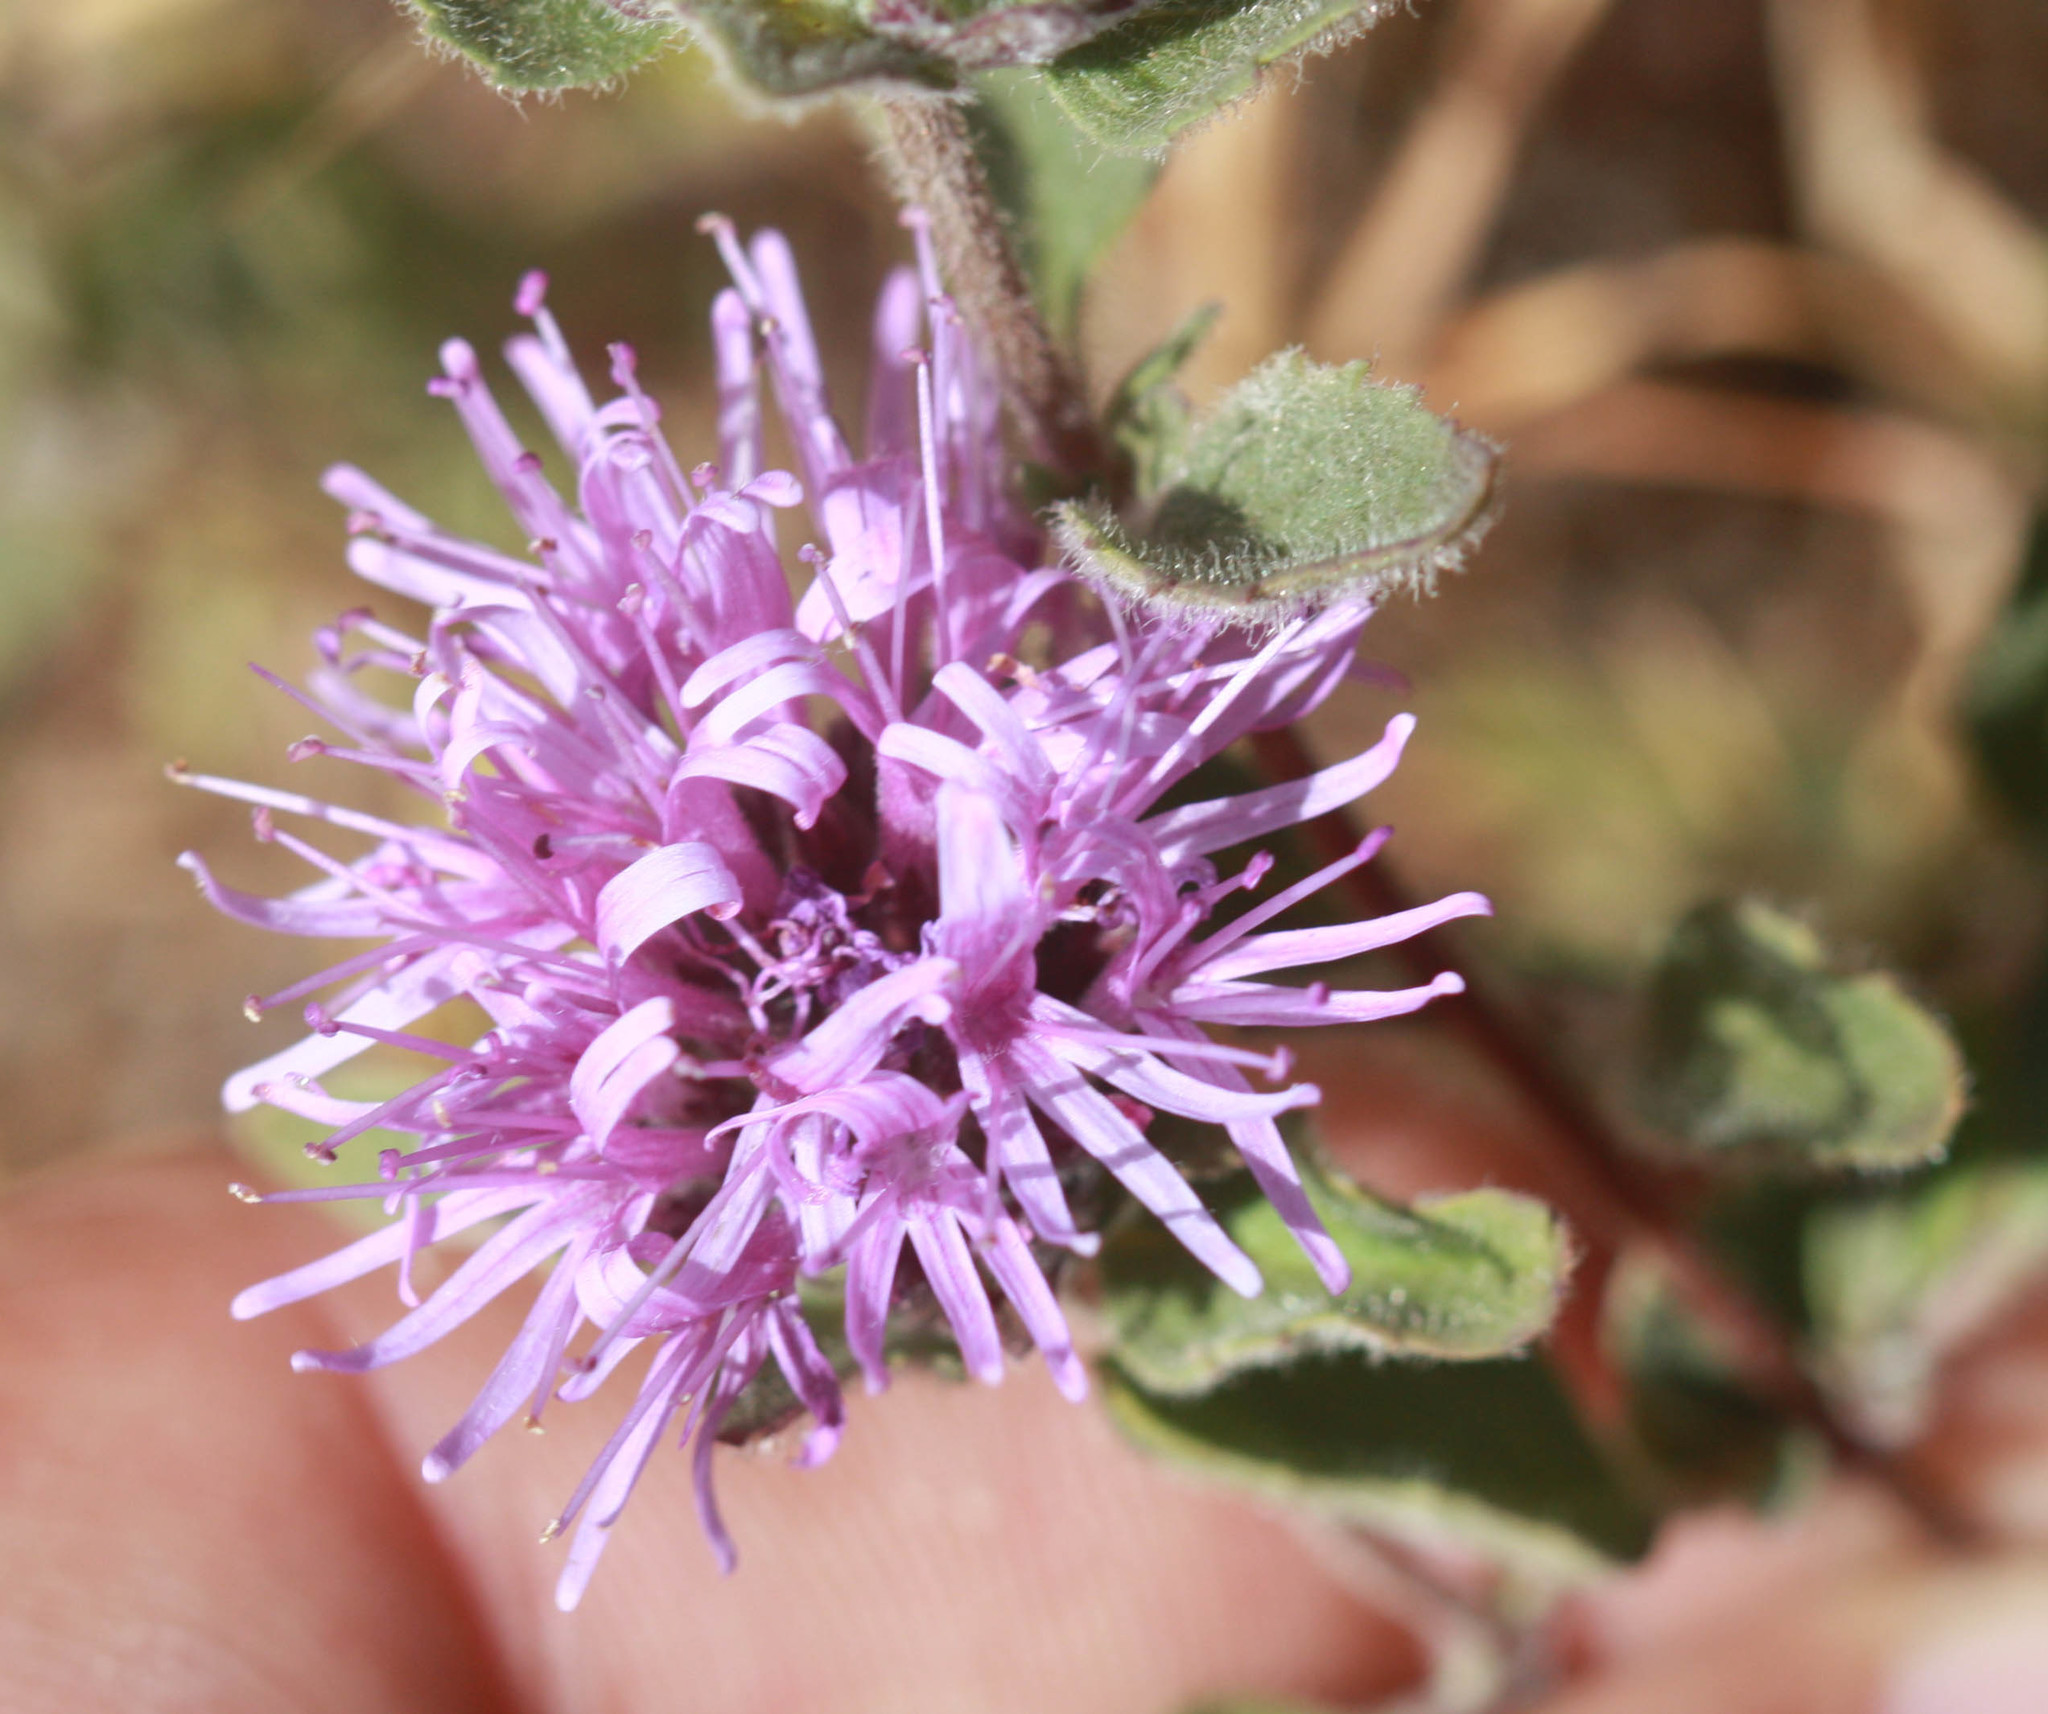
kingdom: Plantae
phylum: Tracheophyta
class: Magnoliopsida
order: Lamiales
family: Lamiaceae
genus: Monardella
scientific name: Monardella odoratissima
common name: Pacific monardella
